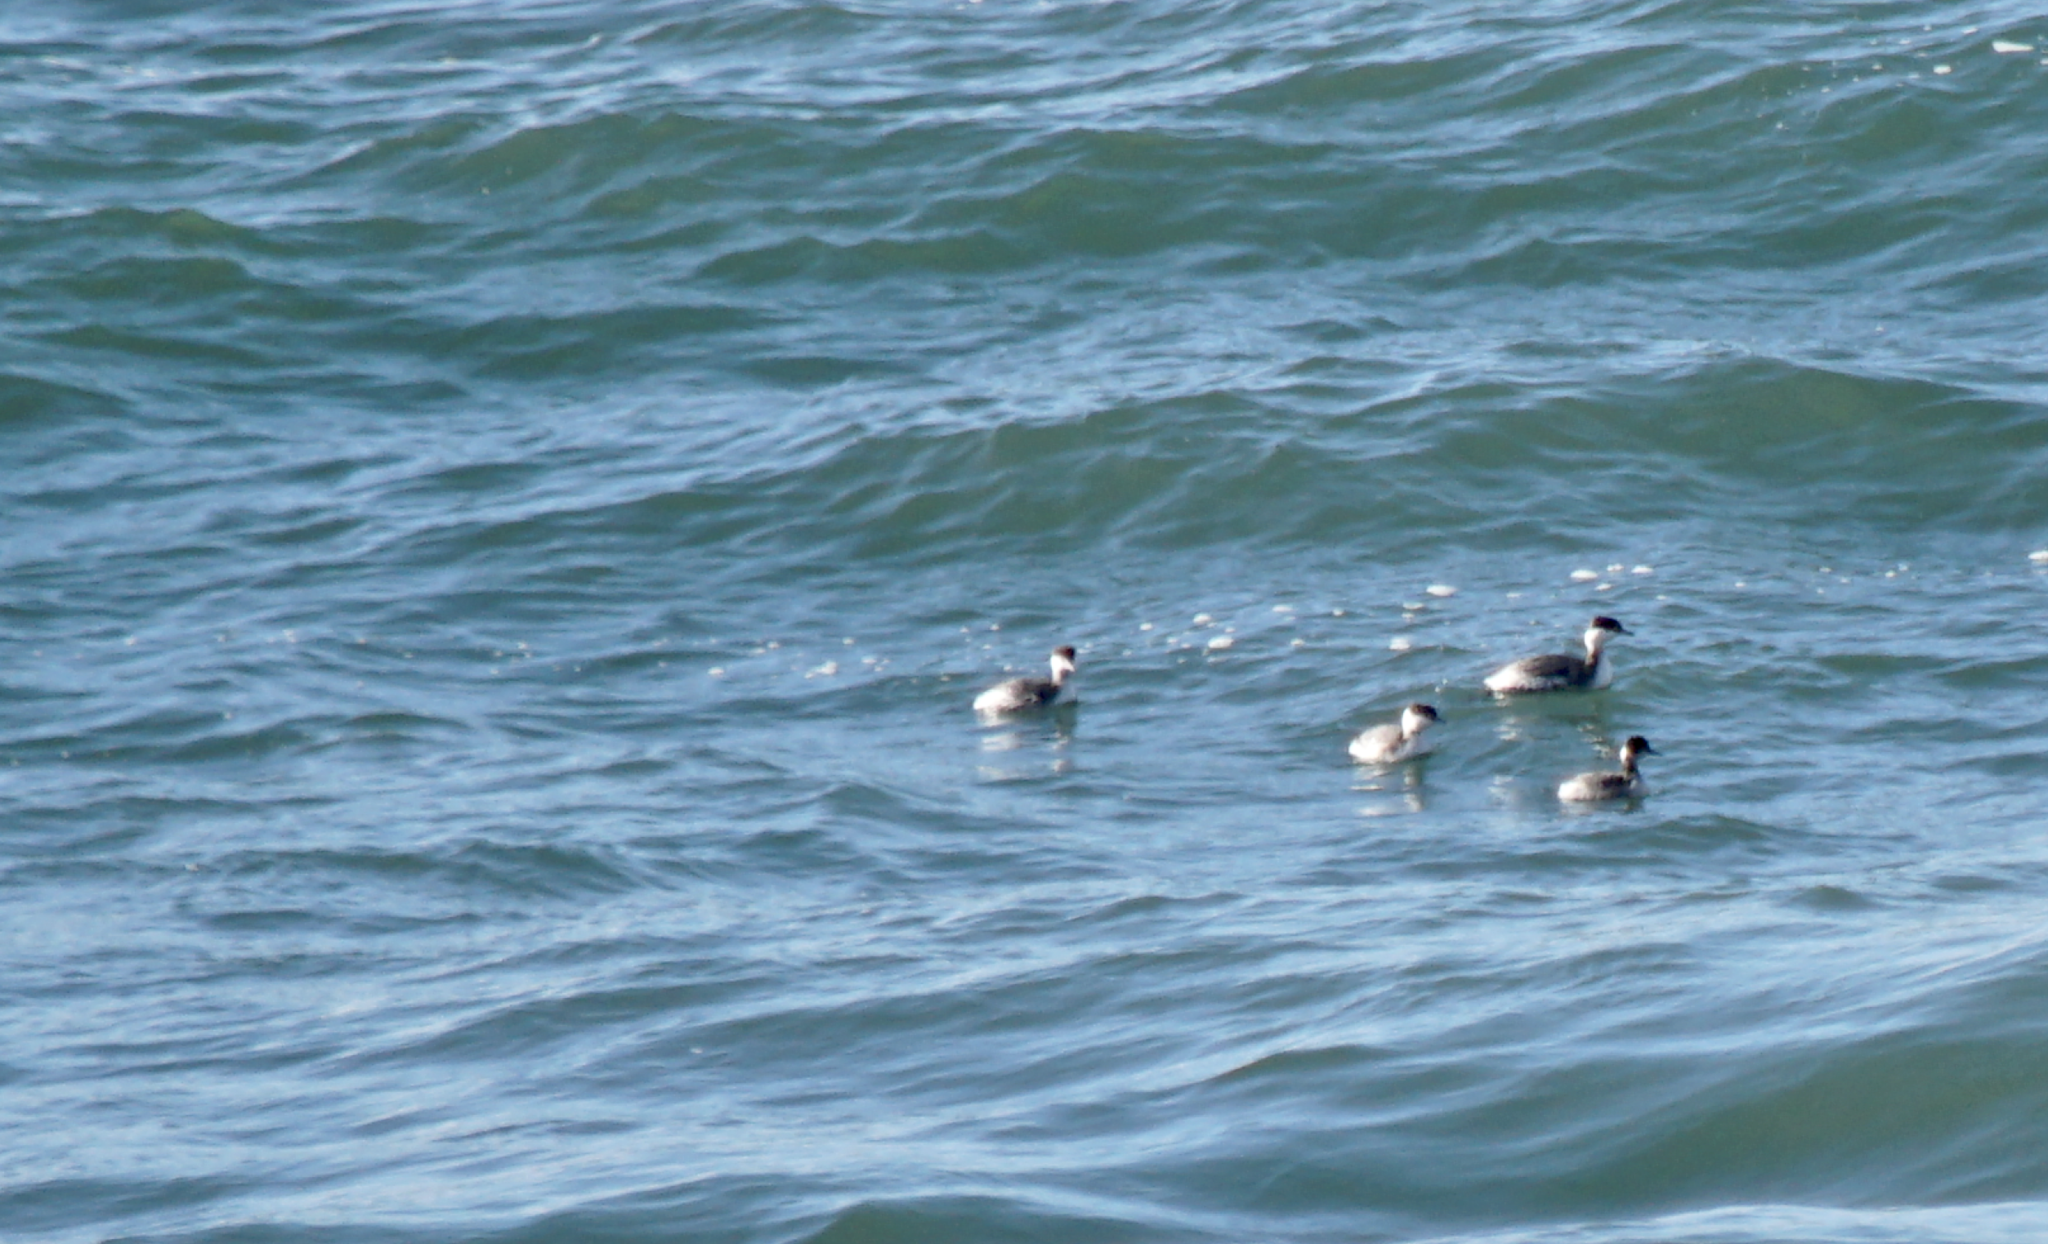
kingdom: Animalia
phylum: Chordata
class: Aves
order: Podicipediformes
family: Podicipedidae
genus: Podiceps
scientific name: Podiceps auritus
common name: Horned grebe
